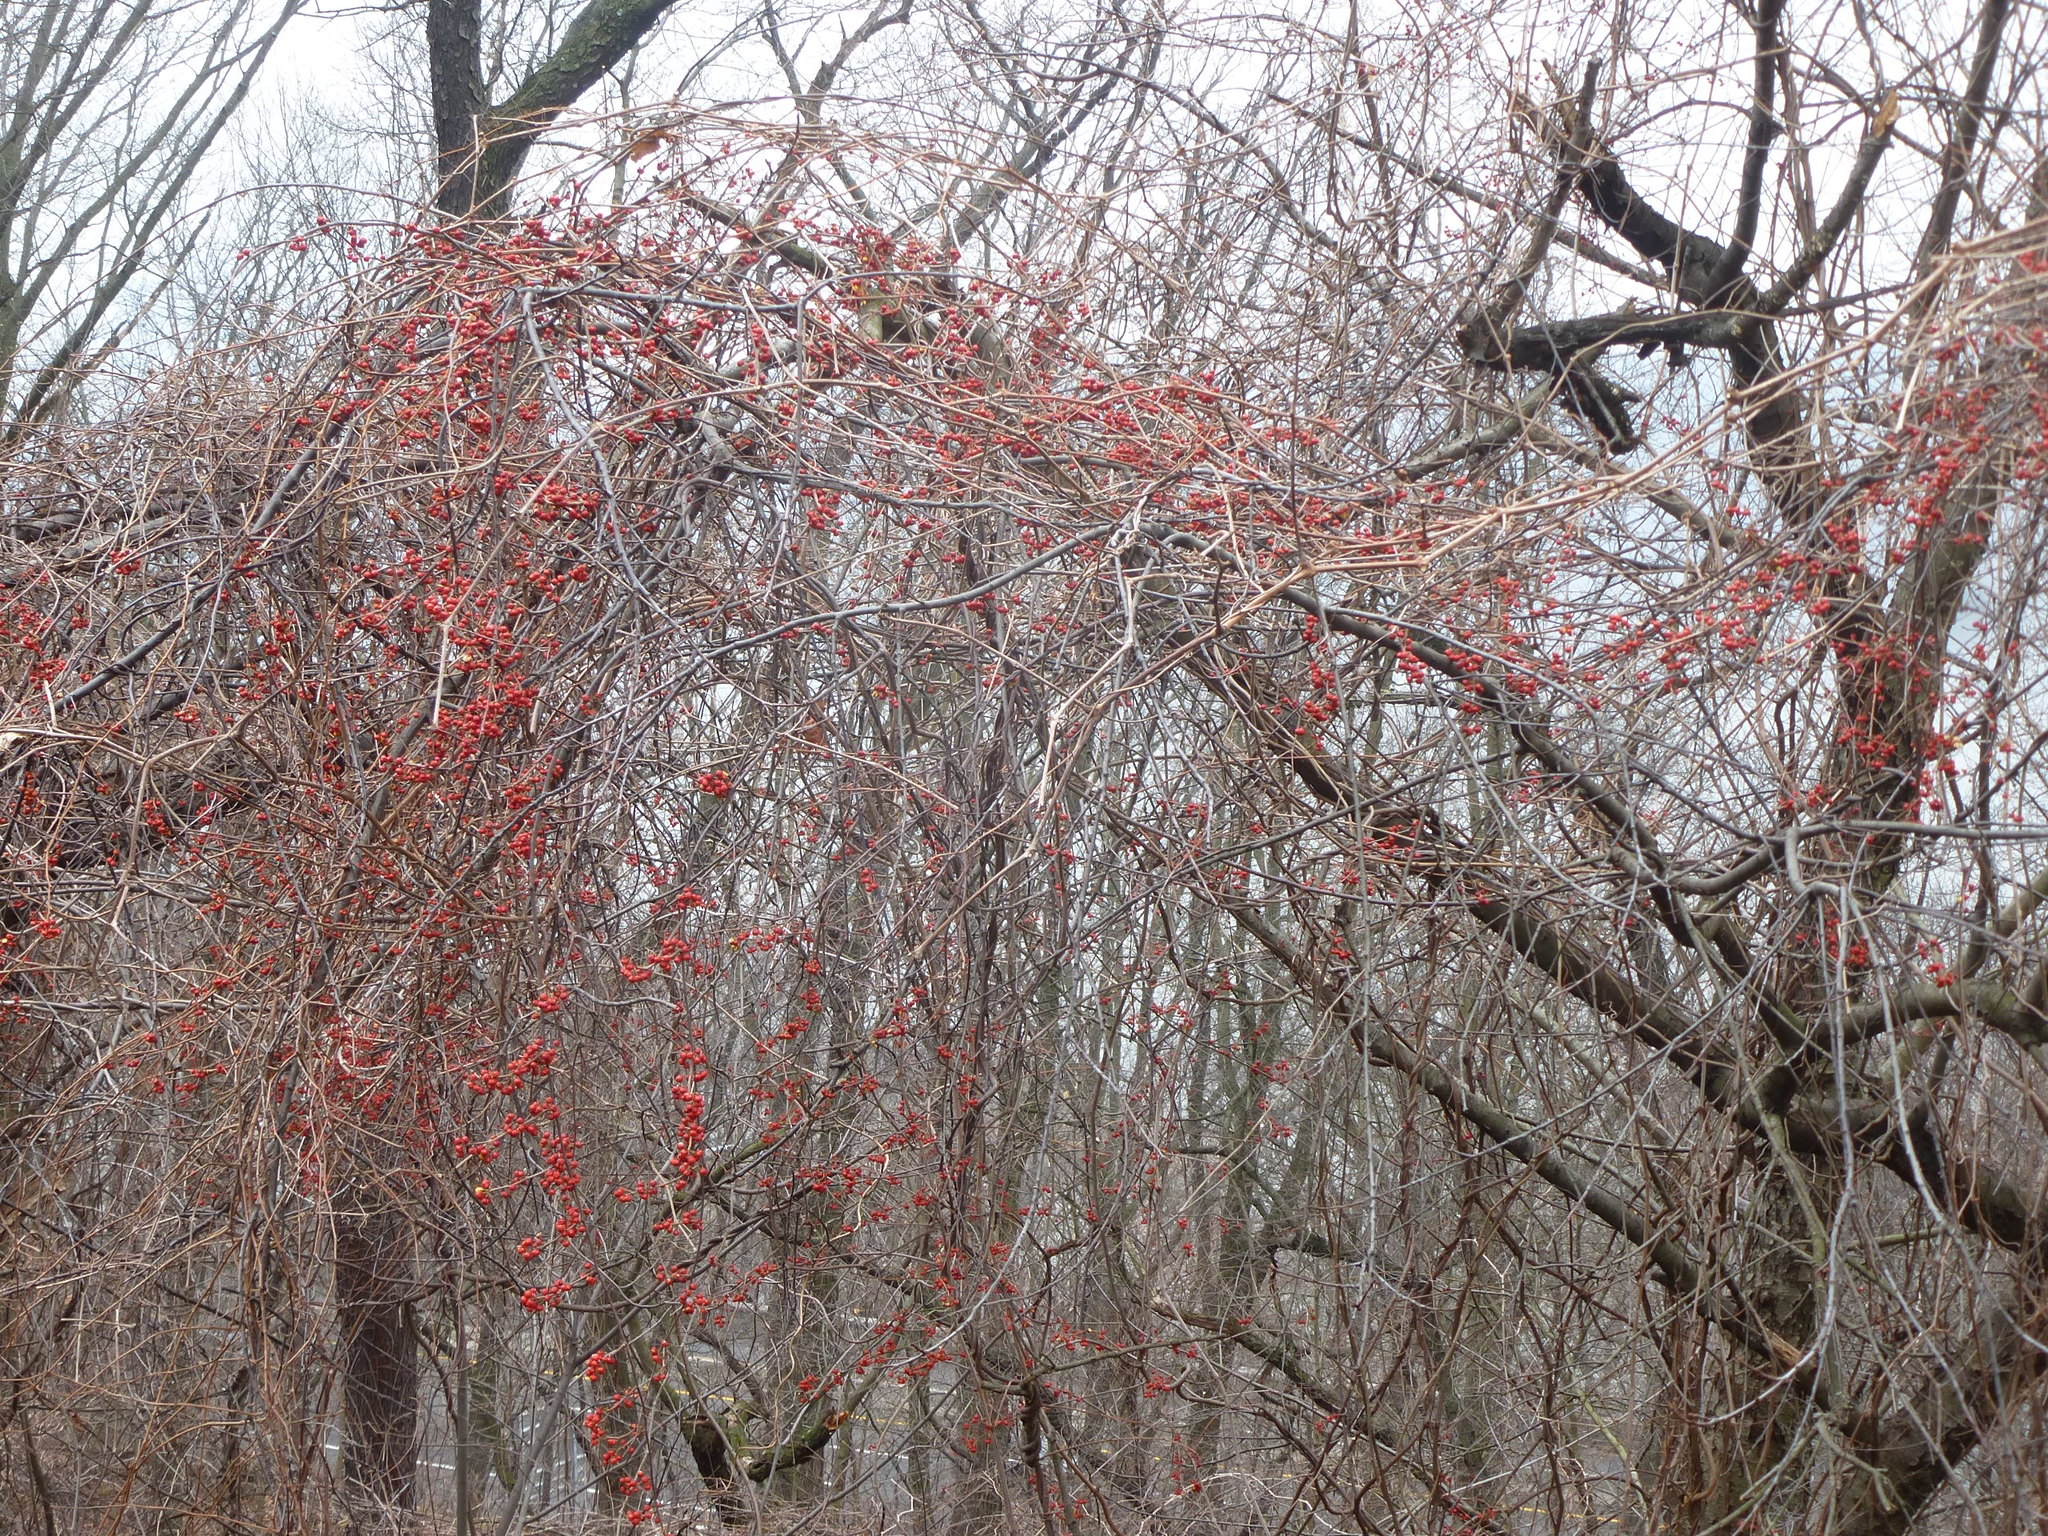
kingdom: Plantae
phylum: Tracheophyta
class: Magnoliopsida
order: Celastrales
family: Celastraceae
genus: Celastrus
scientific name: Celastrus orbiculatus
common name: Oriental bittersweet
